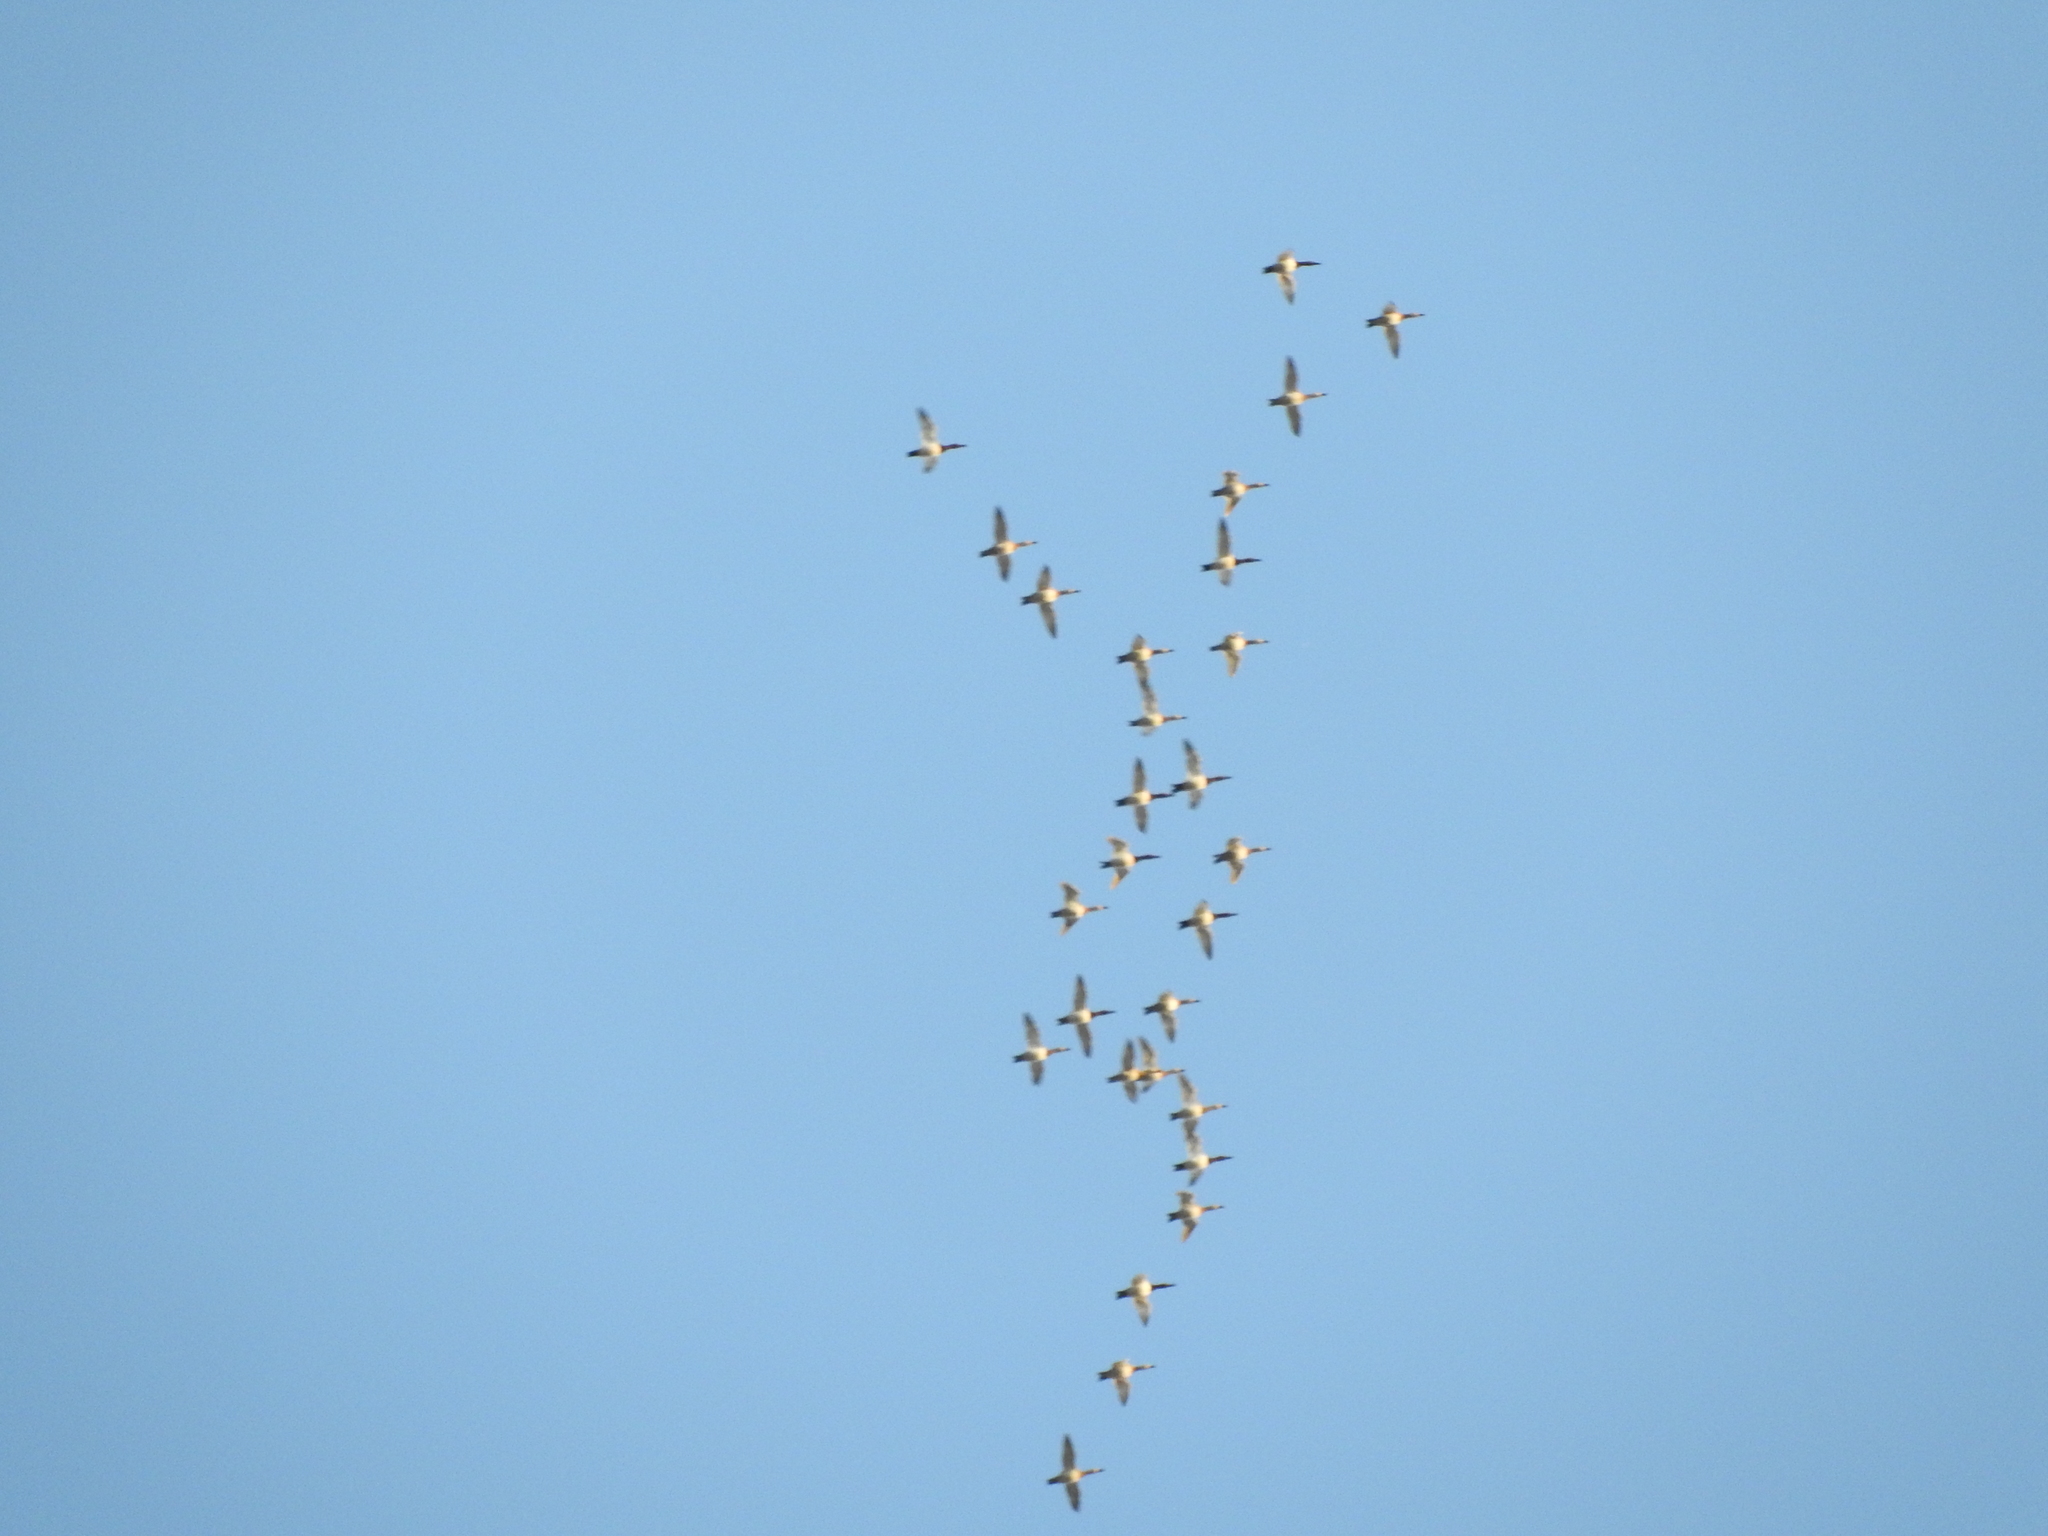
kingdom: Animalia
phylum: Chordata
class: Aves
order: Anseriformes
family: Anatidae
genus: Aythya
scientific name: Aythya valisineria
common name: Canvasback
